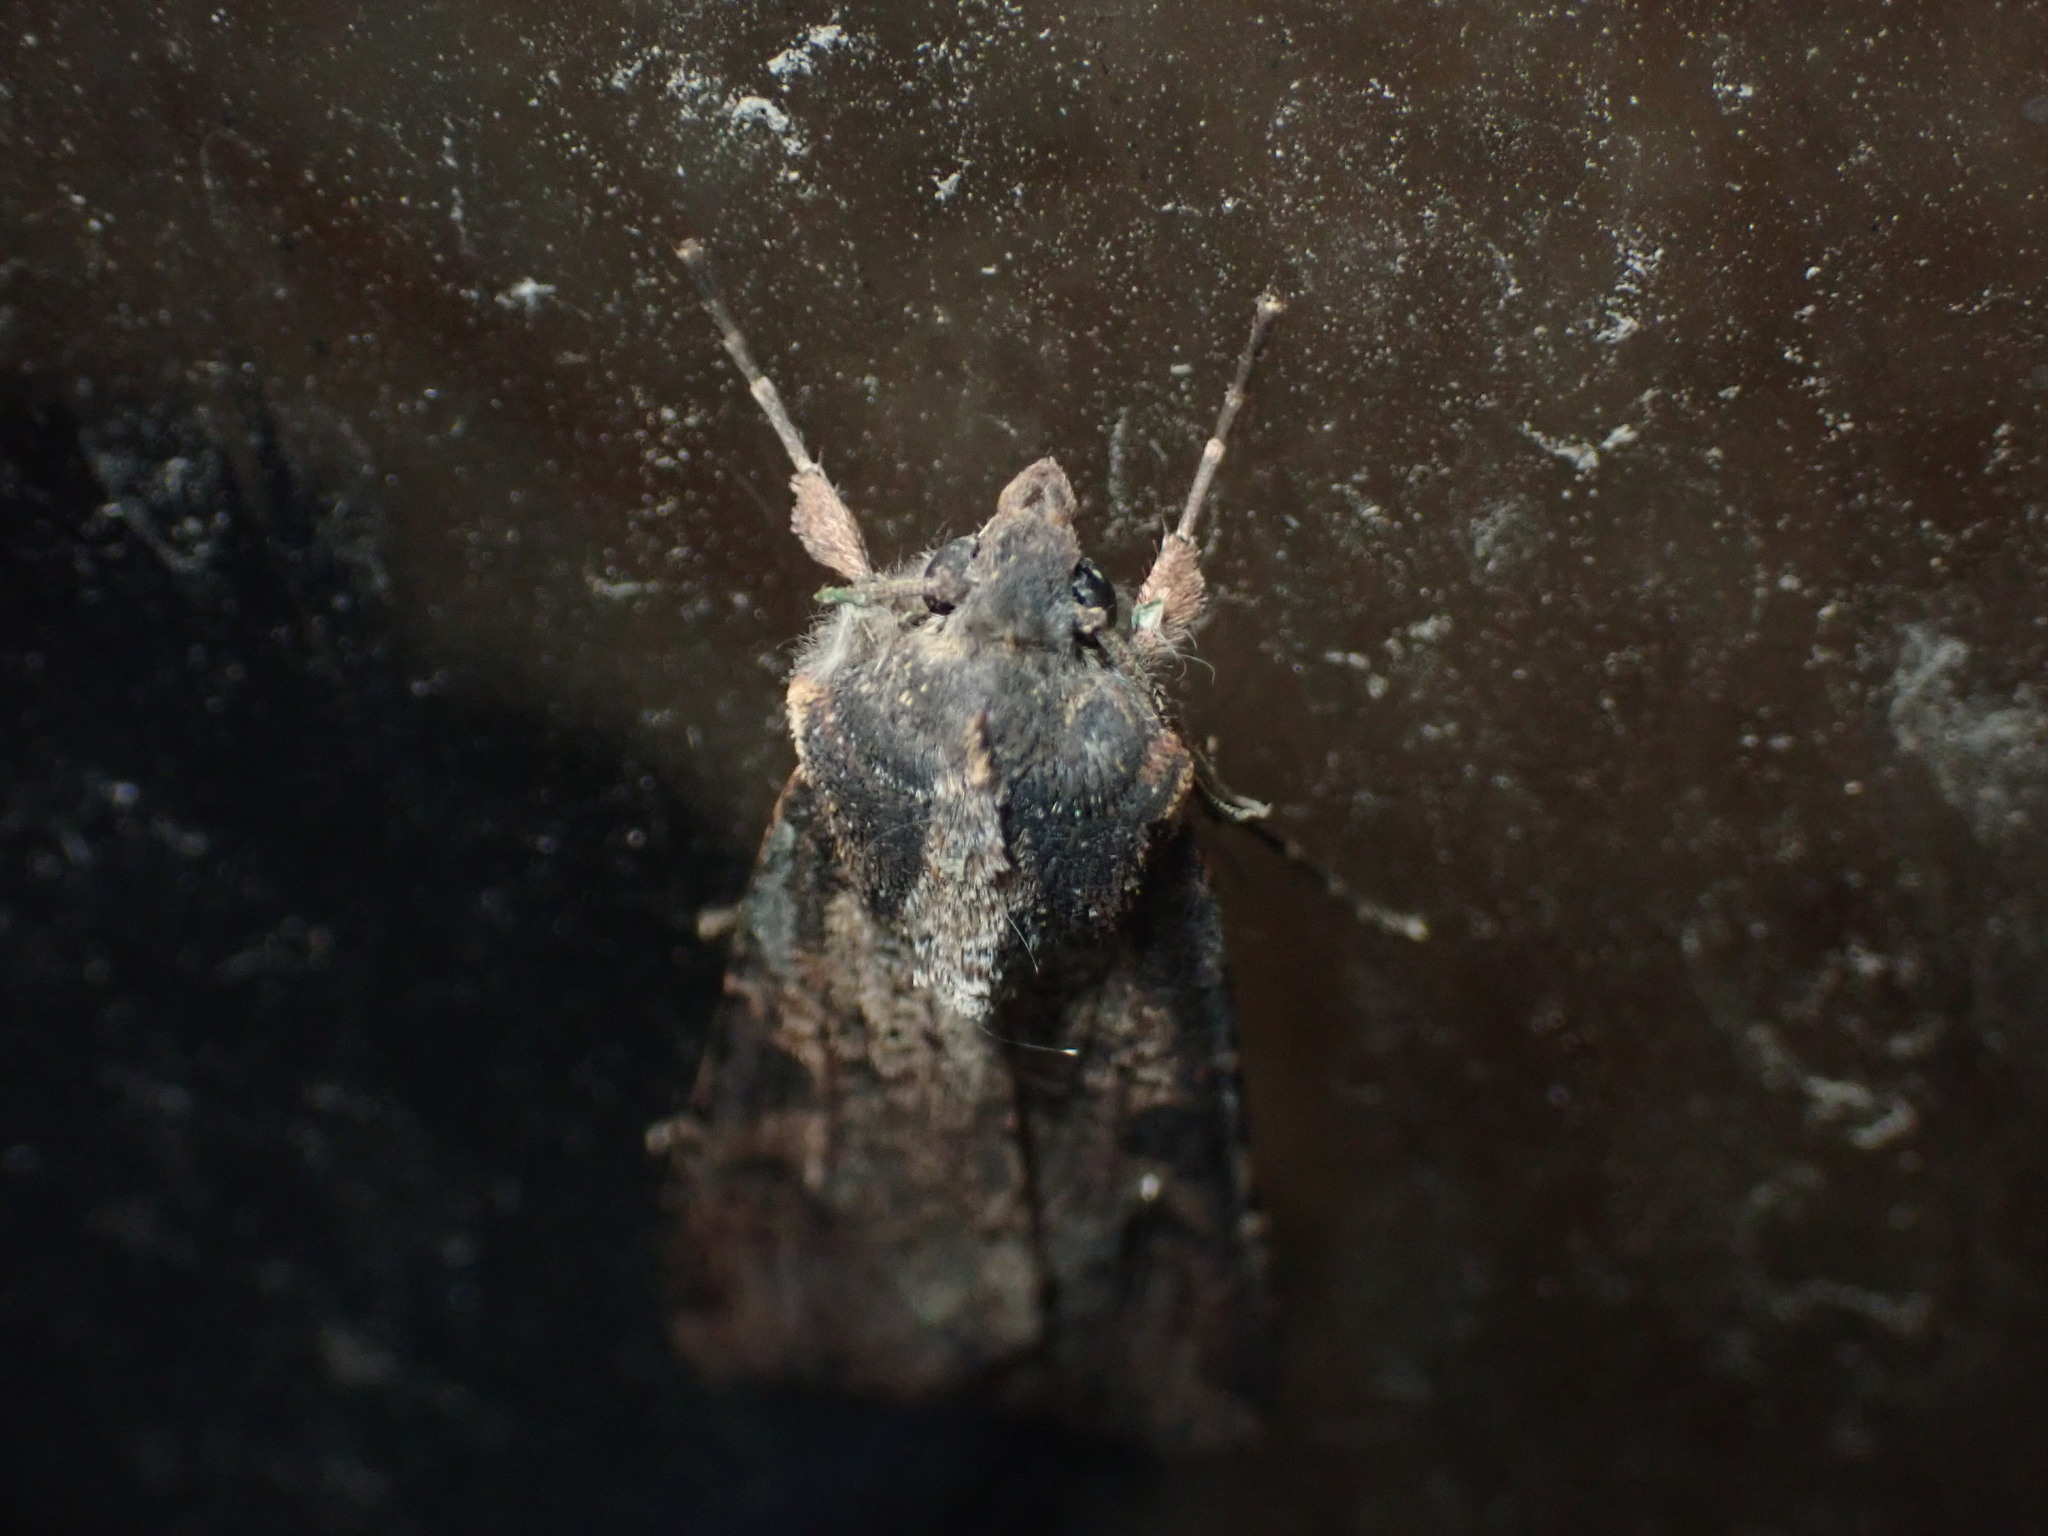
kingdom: Animalia
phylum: Arthropoda
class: Insecta
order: Lepidoptera
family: Noctuidae
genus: Peridroma
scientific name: Peridroma saucia
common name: Pearly underwing
